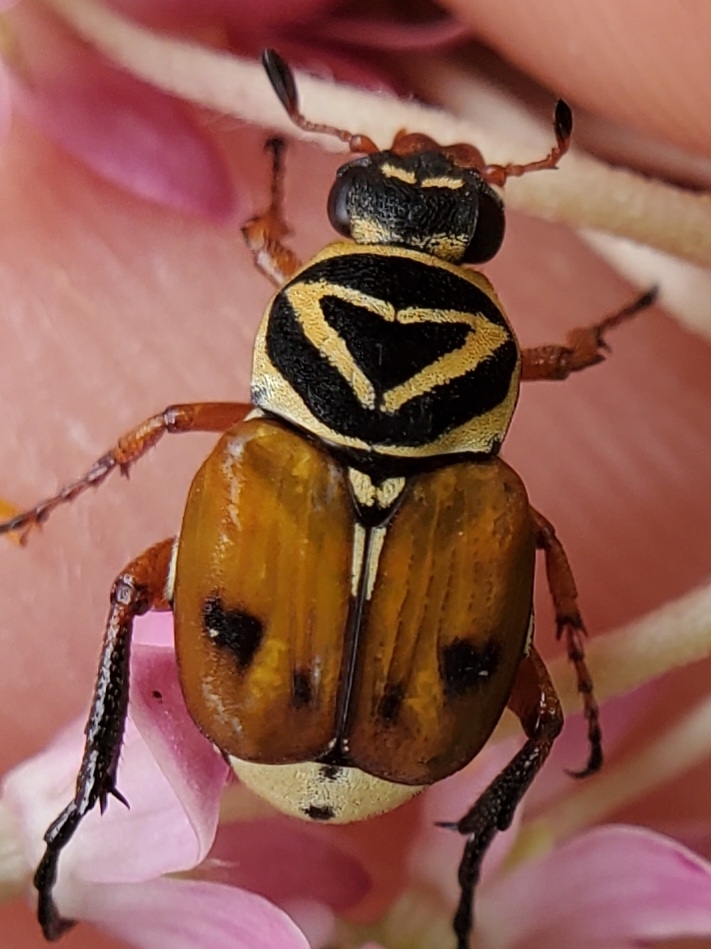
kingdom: Animalia
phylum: Arthropoda
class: Insecta
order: Coleoptera
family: Scarabaeidae
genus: Trigonopeltastes
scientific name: Trigonopeltastes delta
